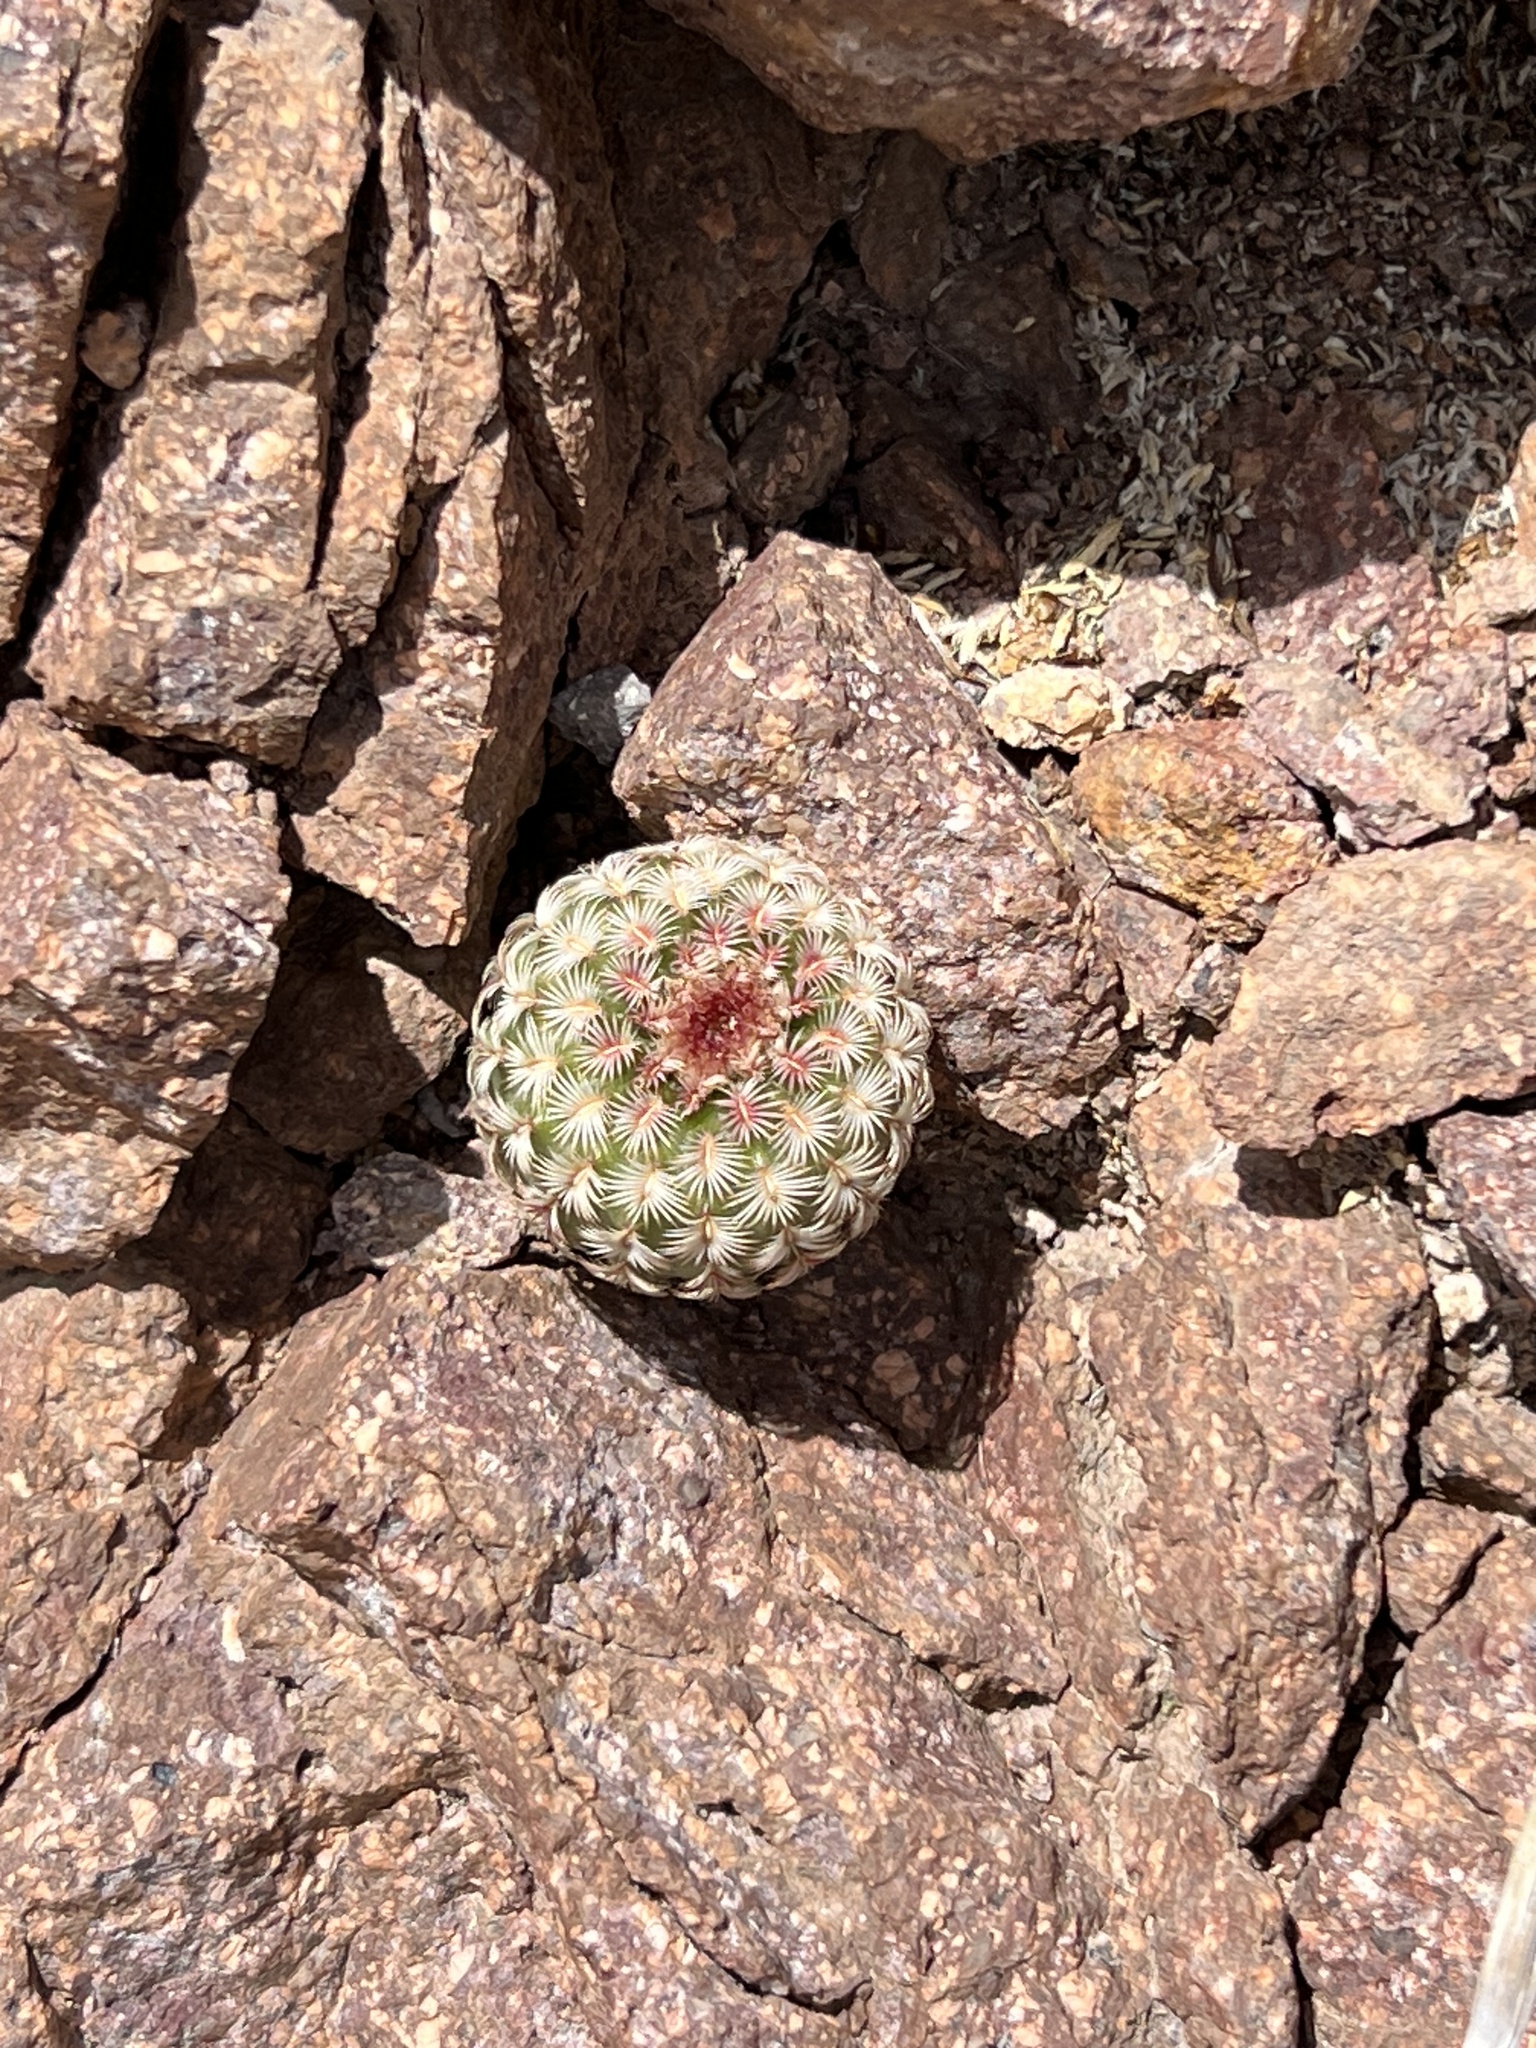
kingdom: Plantae
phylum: Tracheophyta
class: Magnoliopsida
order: Caryophyllales
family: Cactaceae
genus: Echinocereus
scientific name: Echinocereus rigidissimus
